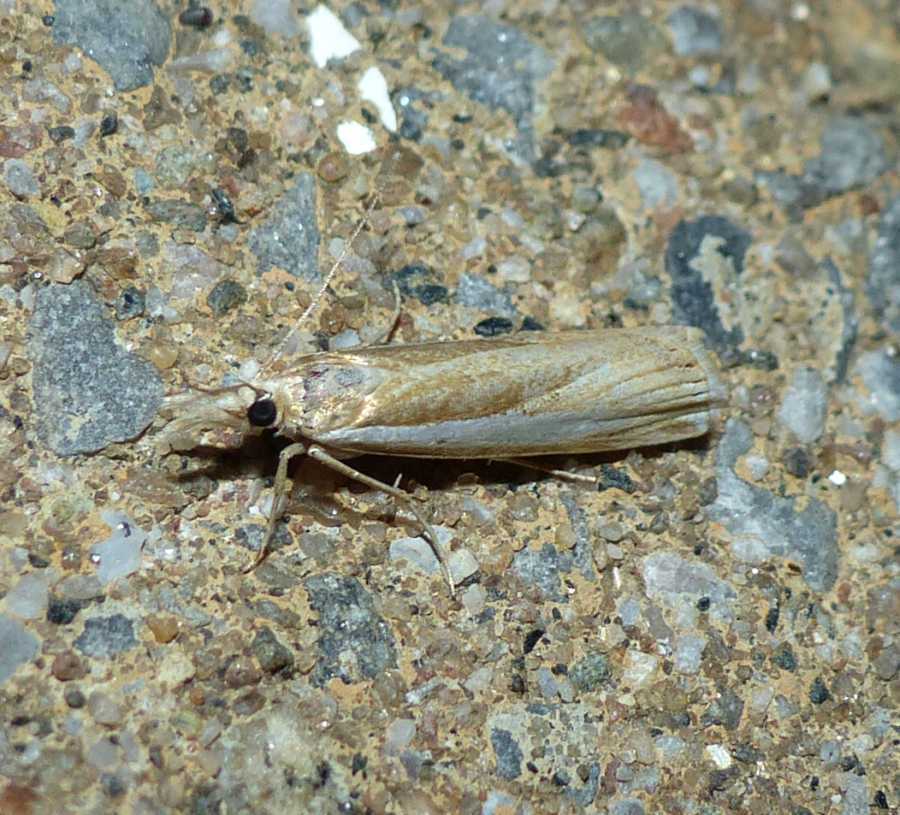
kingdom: Animalia
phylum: Arthropoda
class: Insecta
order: Lepidoptera
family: Crambidae
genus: Crambus
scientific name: Crambus praefectellus
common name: Common grass-veneer
